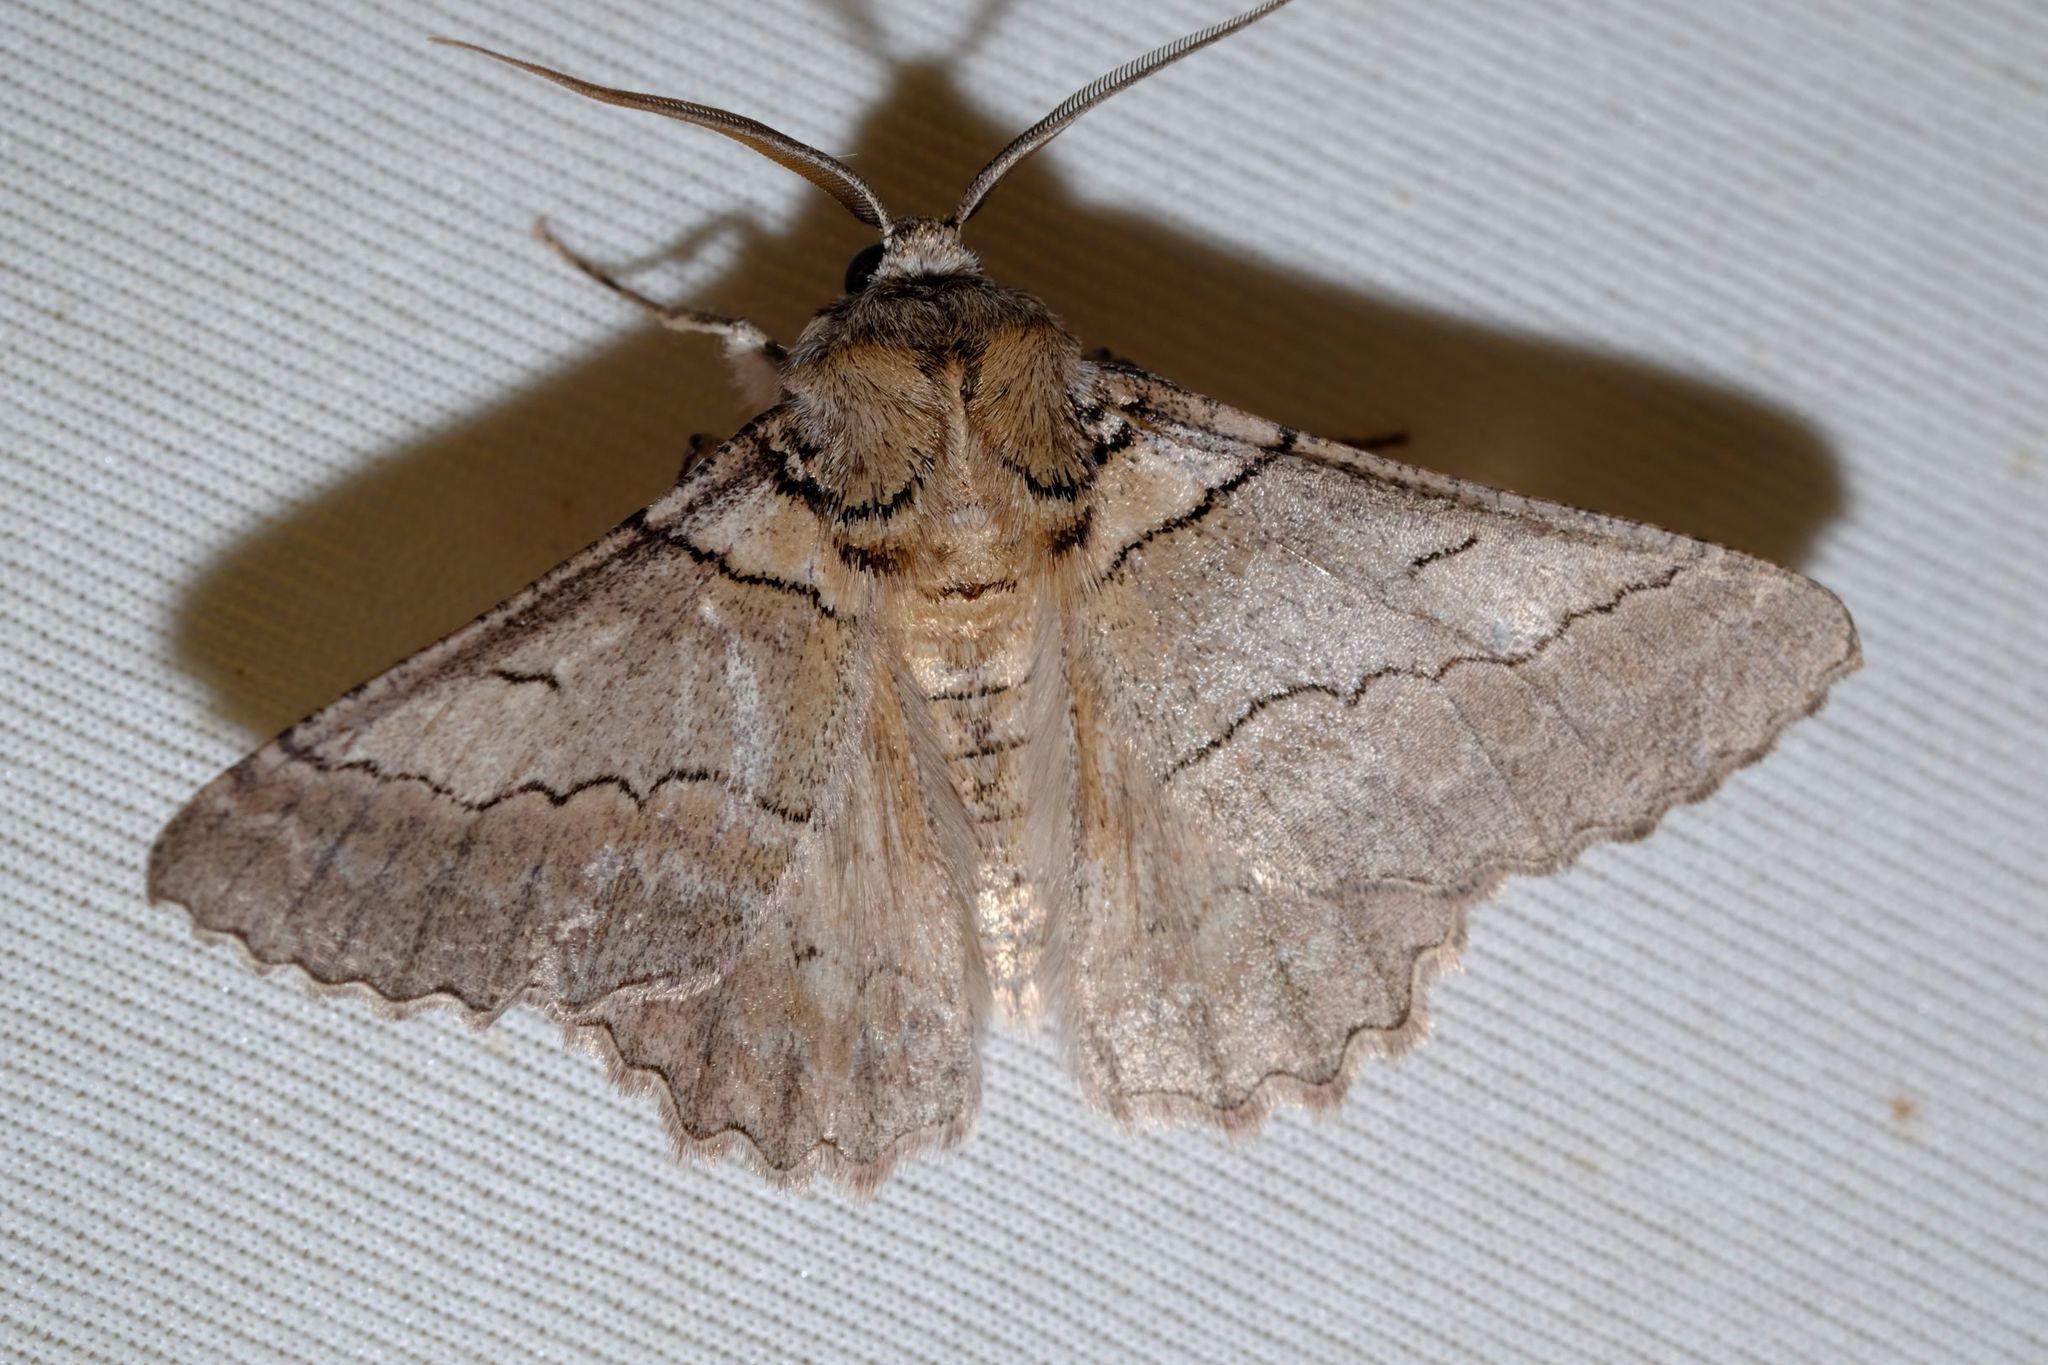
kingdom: Animalia
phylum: Arthropoda
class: Insecta
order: Lepidoptera
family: Geometridae
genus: Hypobapta
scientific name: Hypobapta tachyhalotaria
